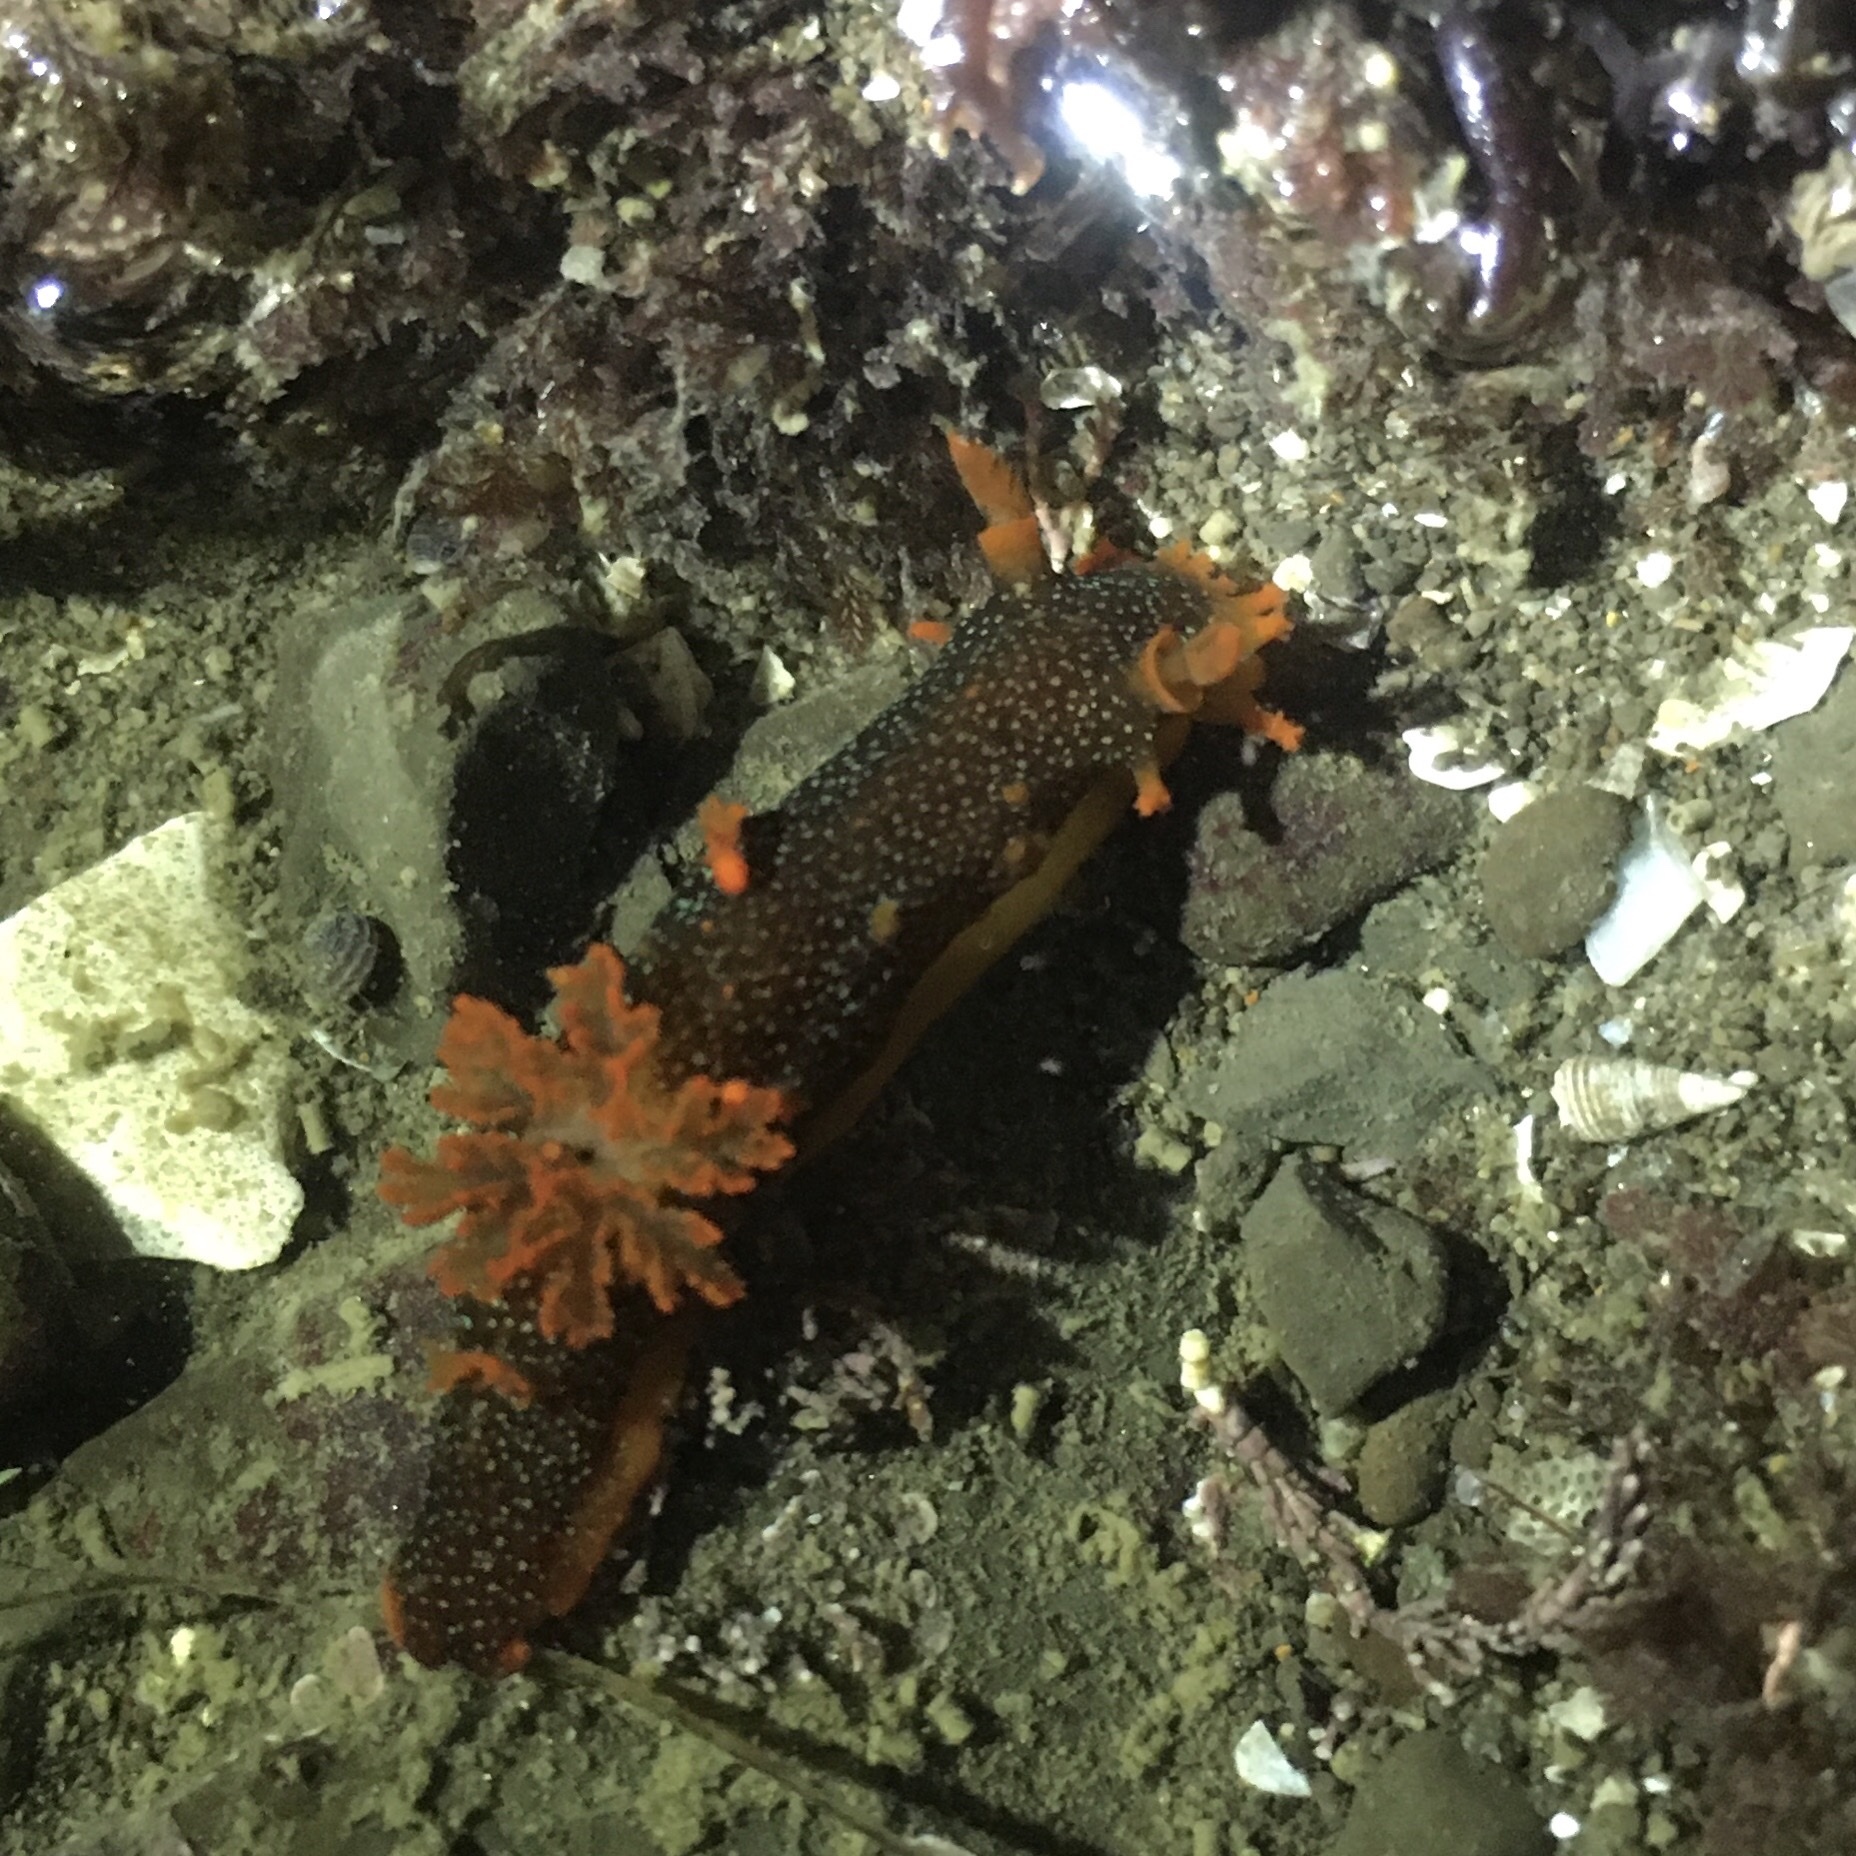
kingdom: Animalia
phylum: Mollusca
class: Gastropoda
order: Nudibranchia
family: Polyceridae
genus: Triopha
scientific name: Triopha maculata
